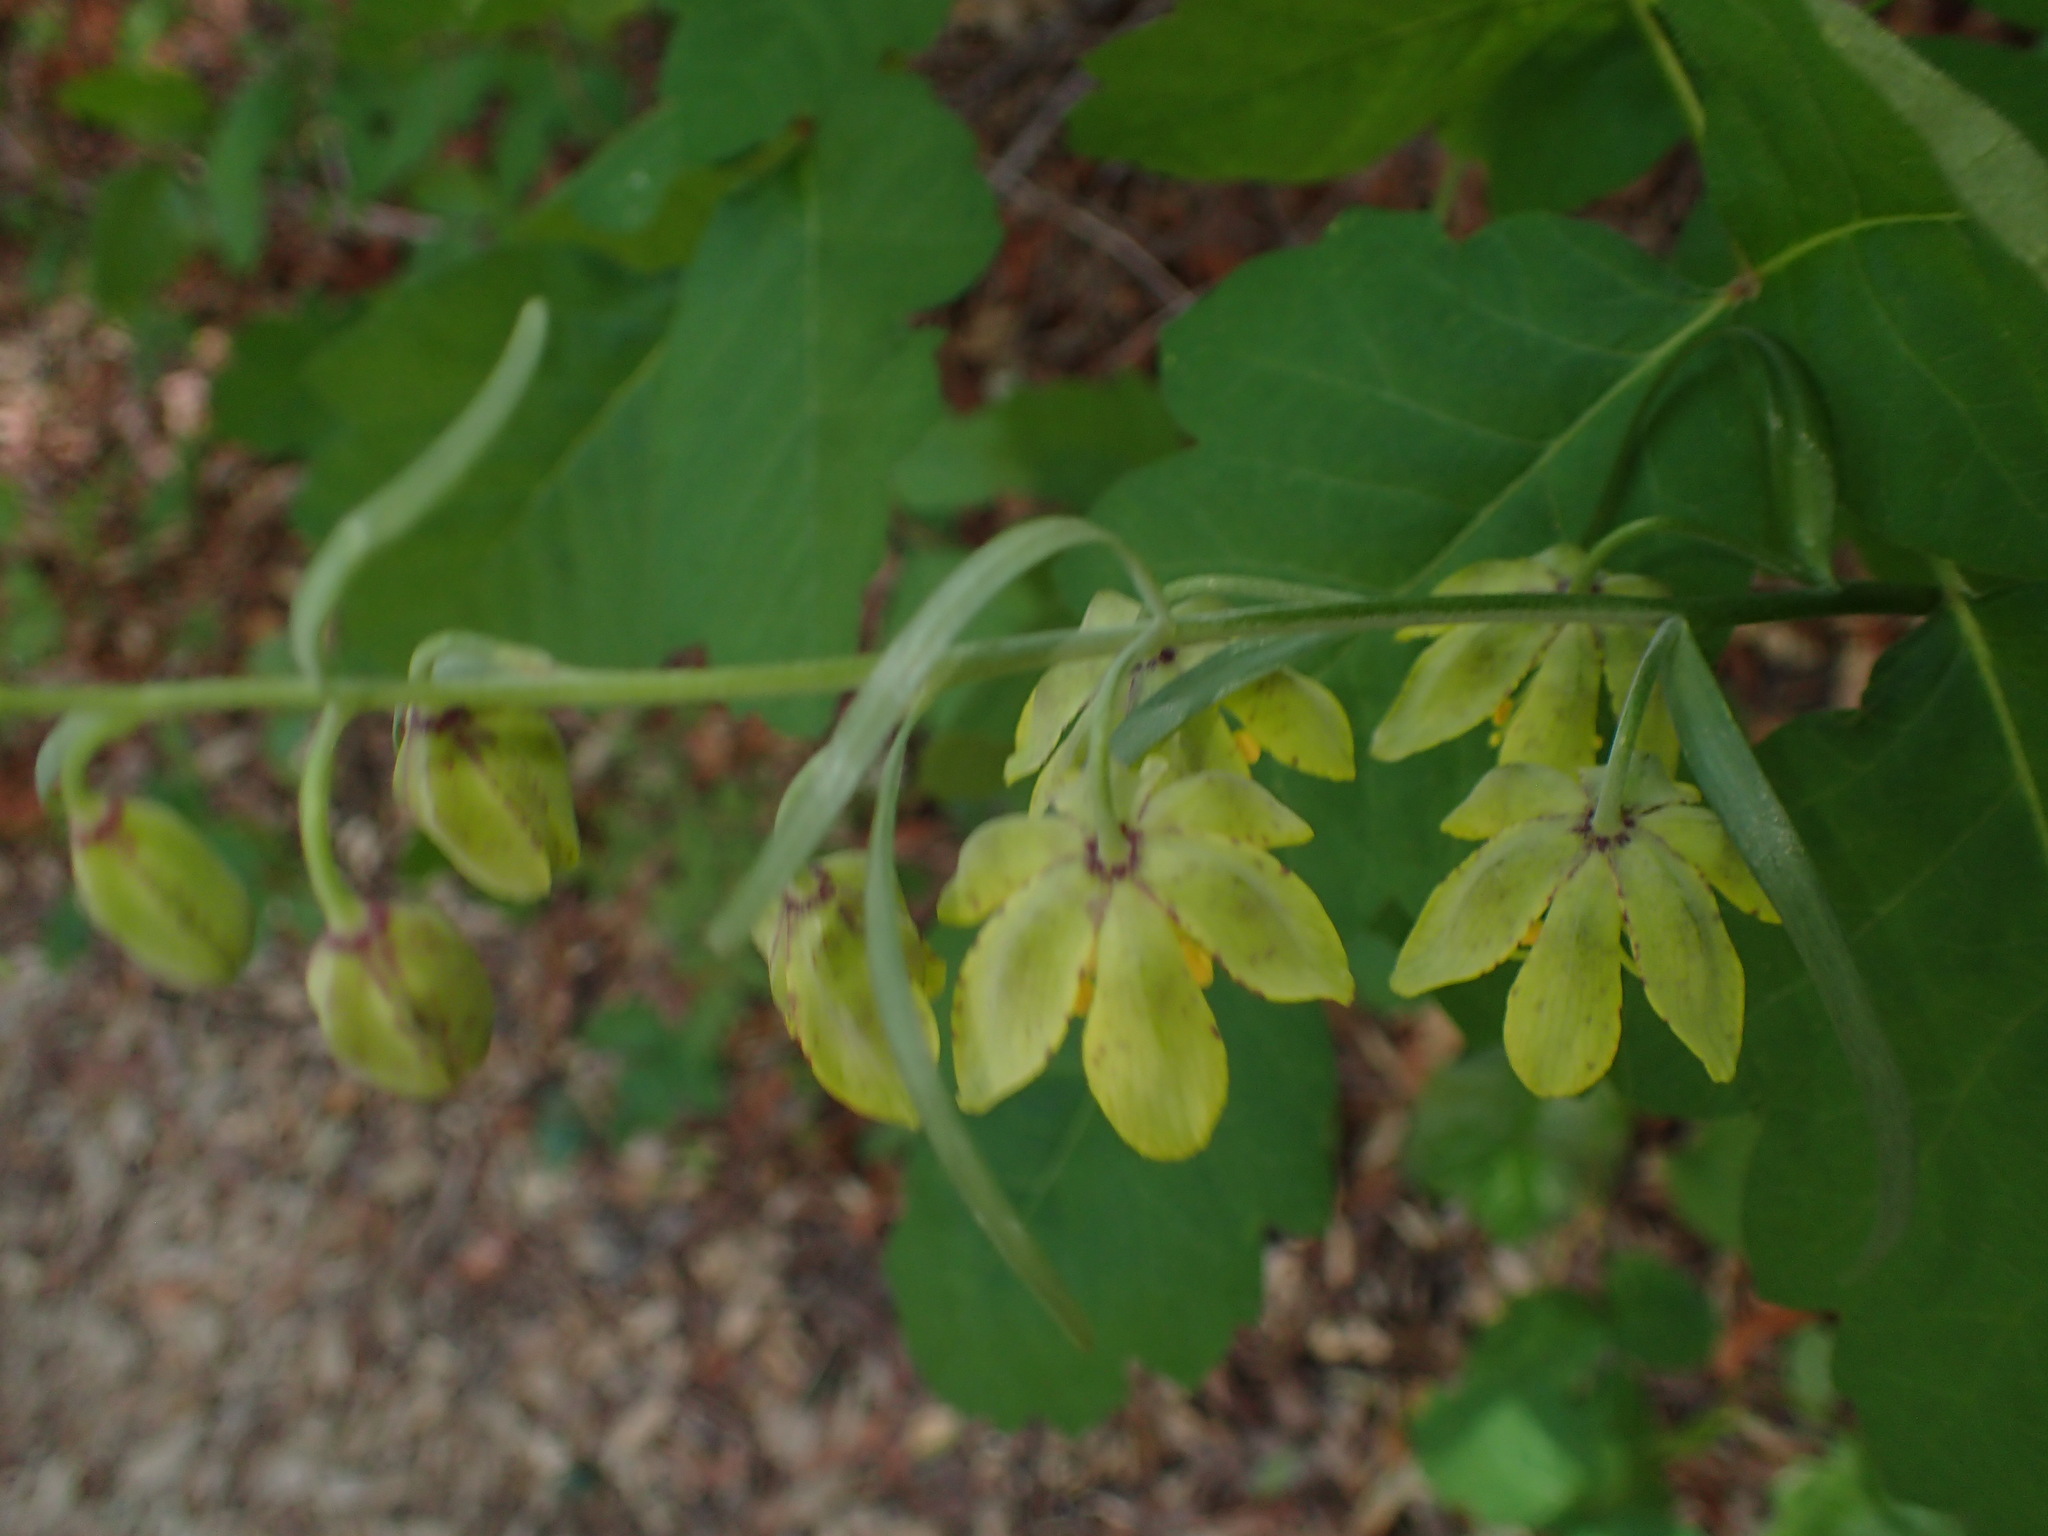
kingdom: Plantae
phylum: Tracheophyta
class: Liliopsida
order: Liliales
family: Liliaceae
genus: Fritillaria
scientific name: Fritillaria ojaiensis
